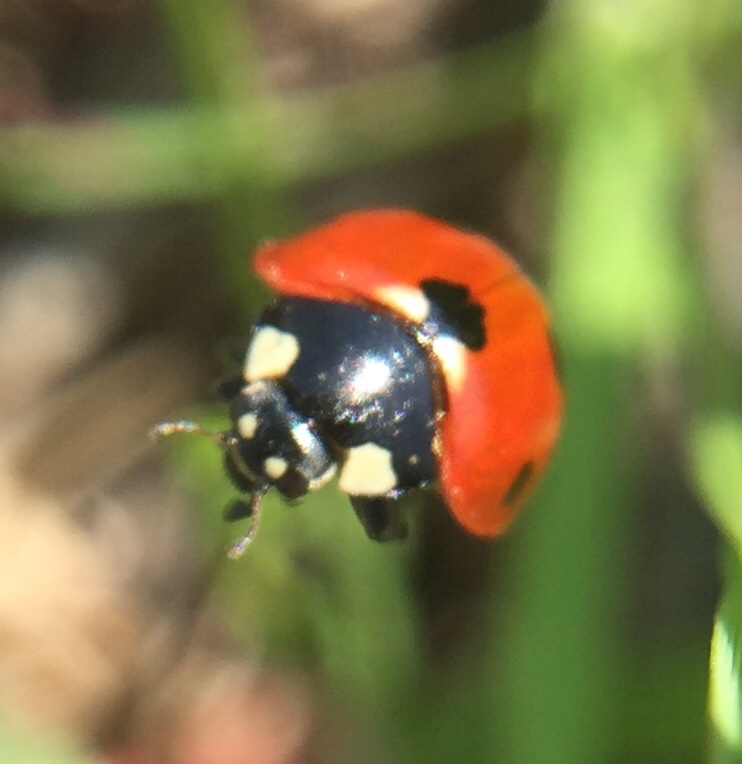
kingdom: Animalia
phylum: Arthropoda
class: Insecta
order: Coleoptera
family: Coccinellidae
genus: Coccinella
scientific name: Coccinella septempunctata
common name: Sevenspotted lady beetle
